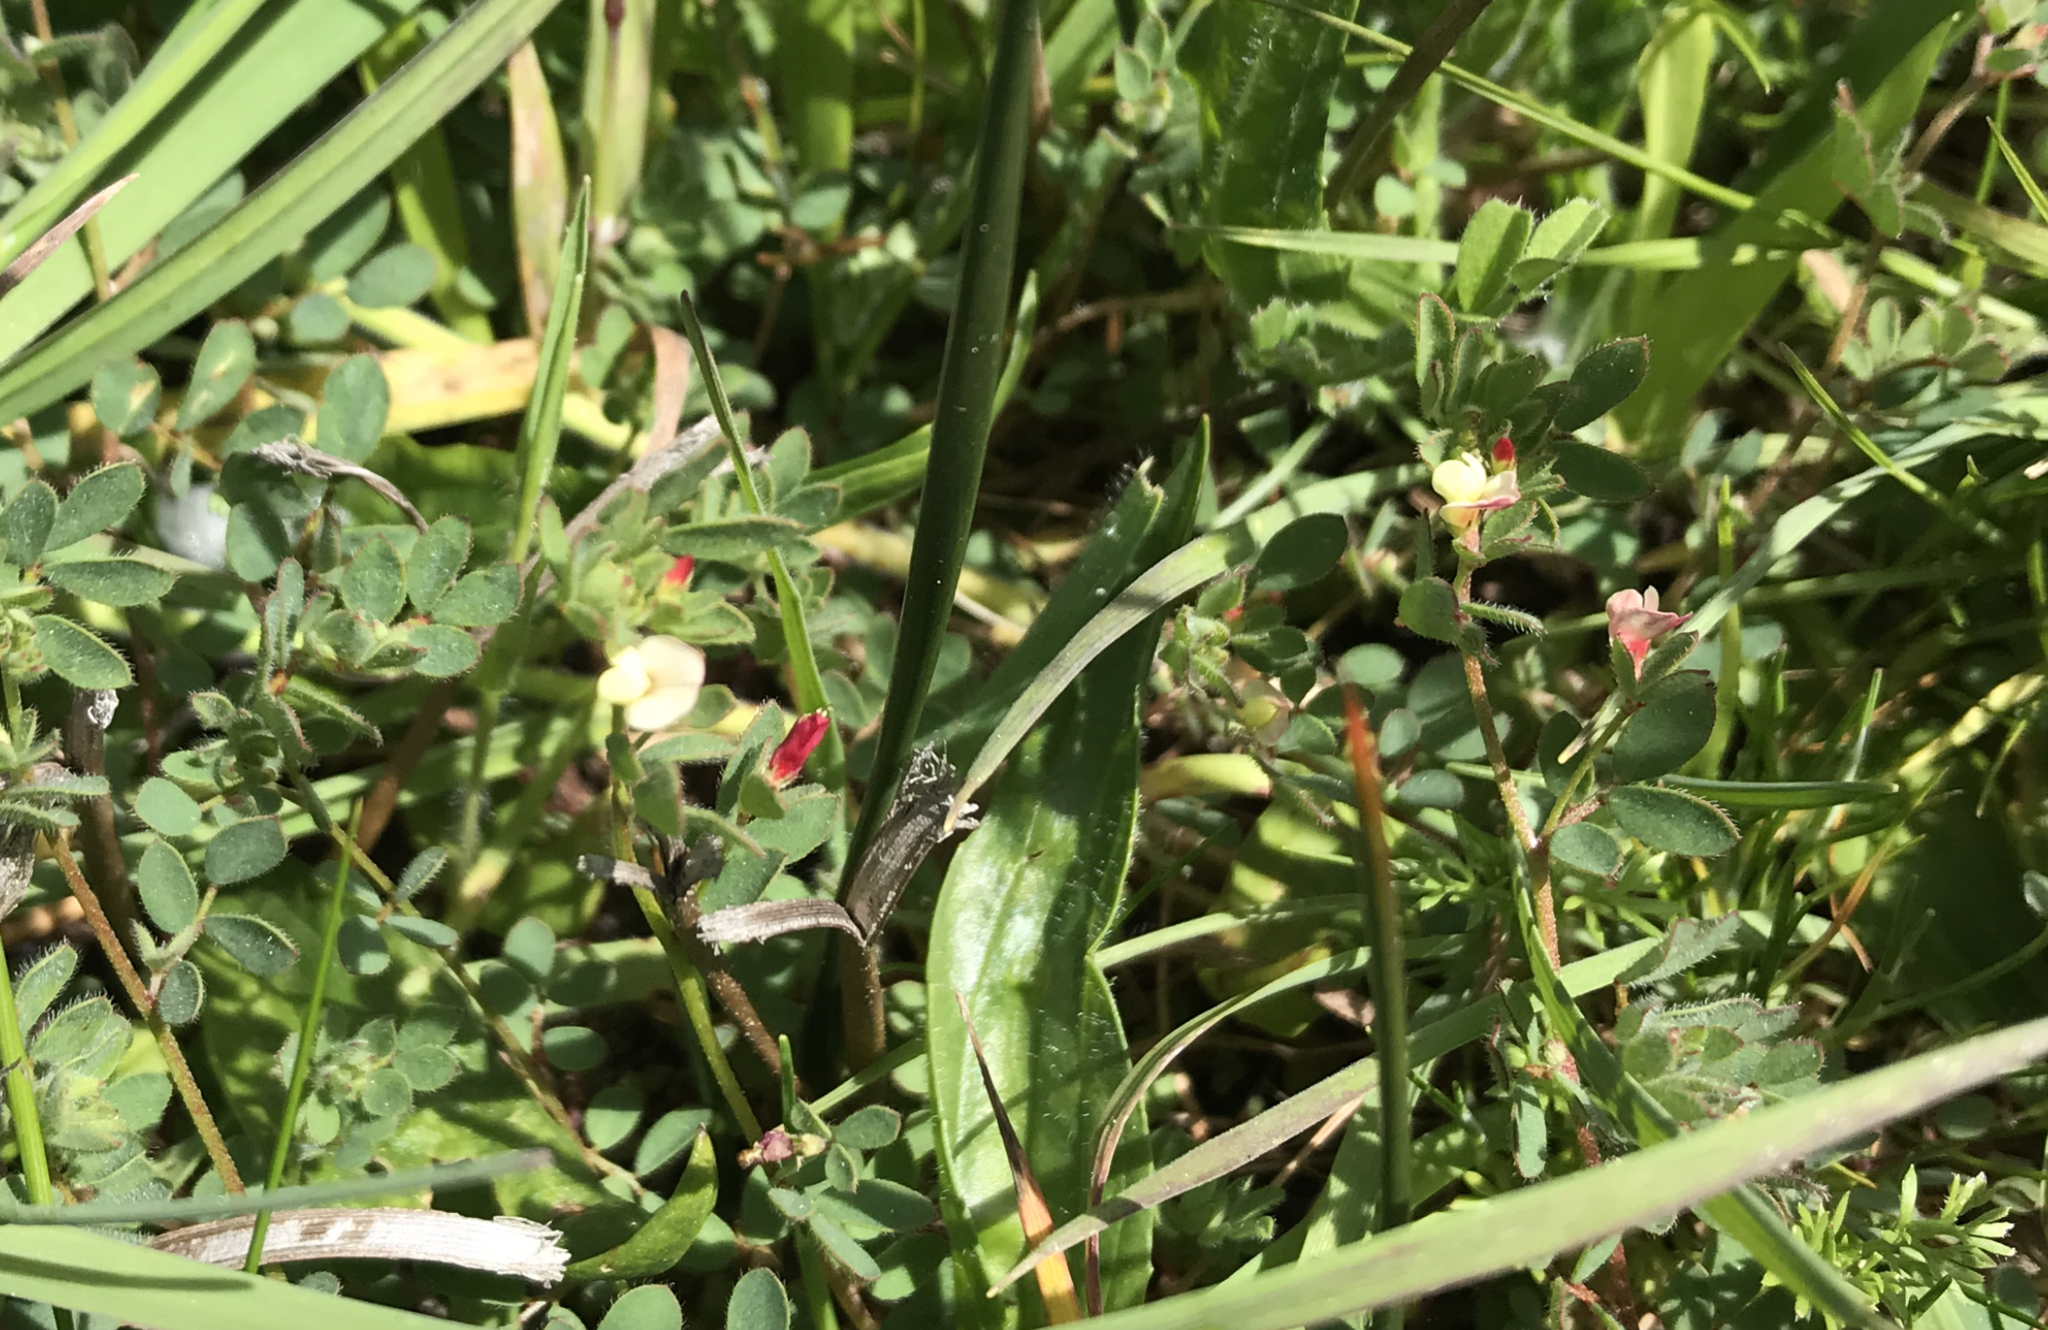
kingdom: Plantae
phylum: Tracheophyta
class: Magnoliopsida
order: Fabales
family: Fabaceae
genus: Acmispon
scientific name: Acmispon parviflorus
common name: Desert deer-vetch
